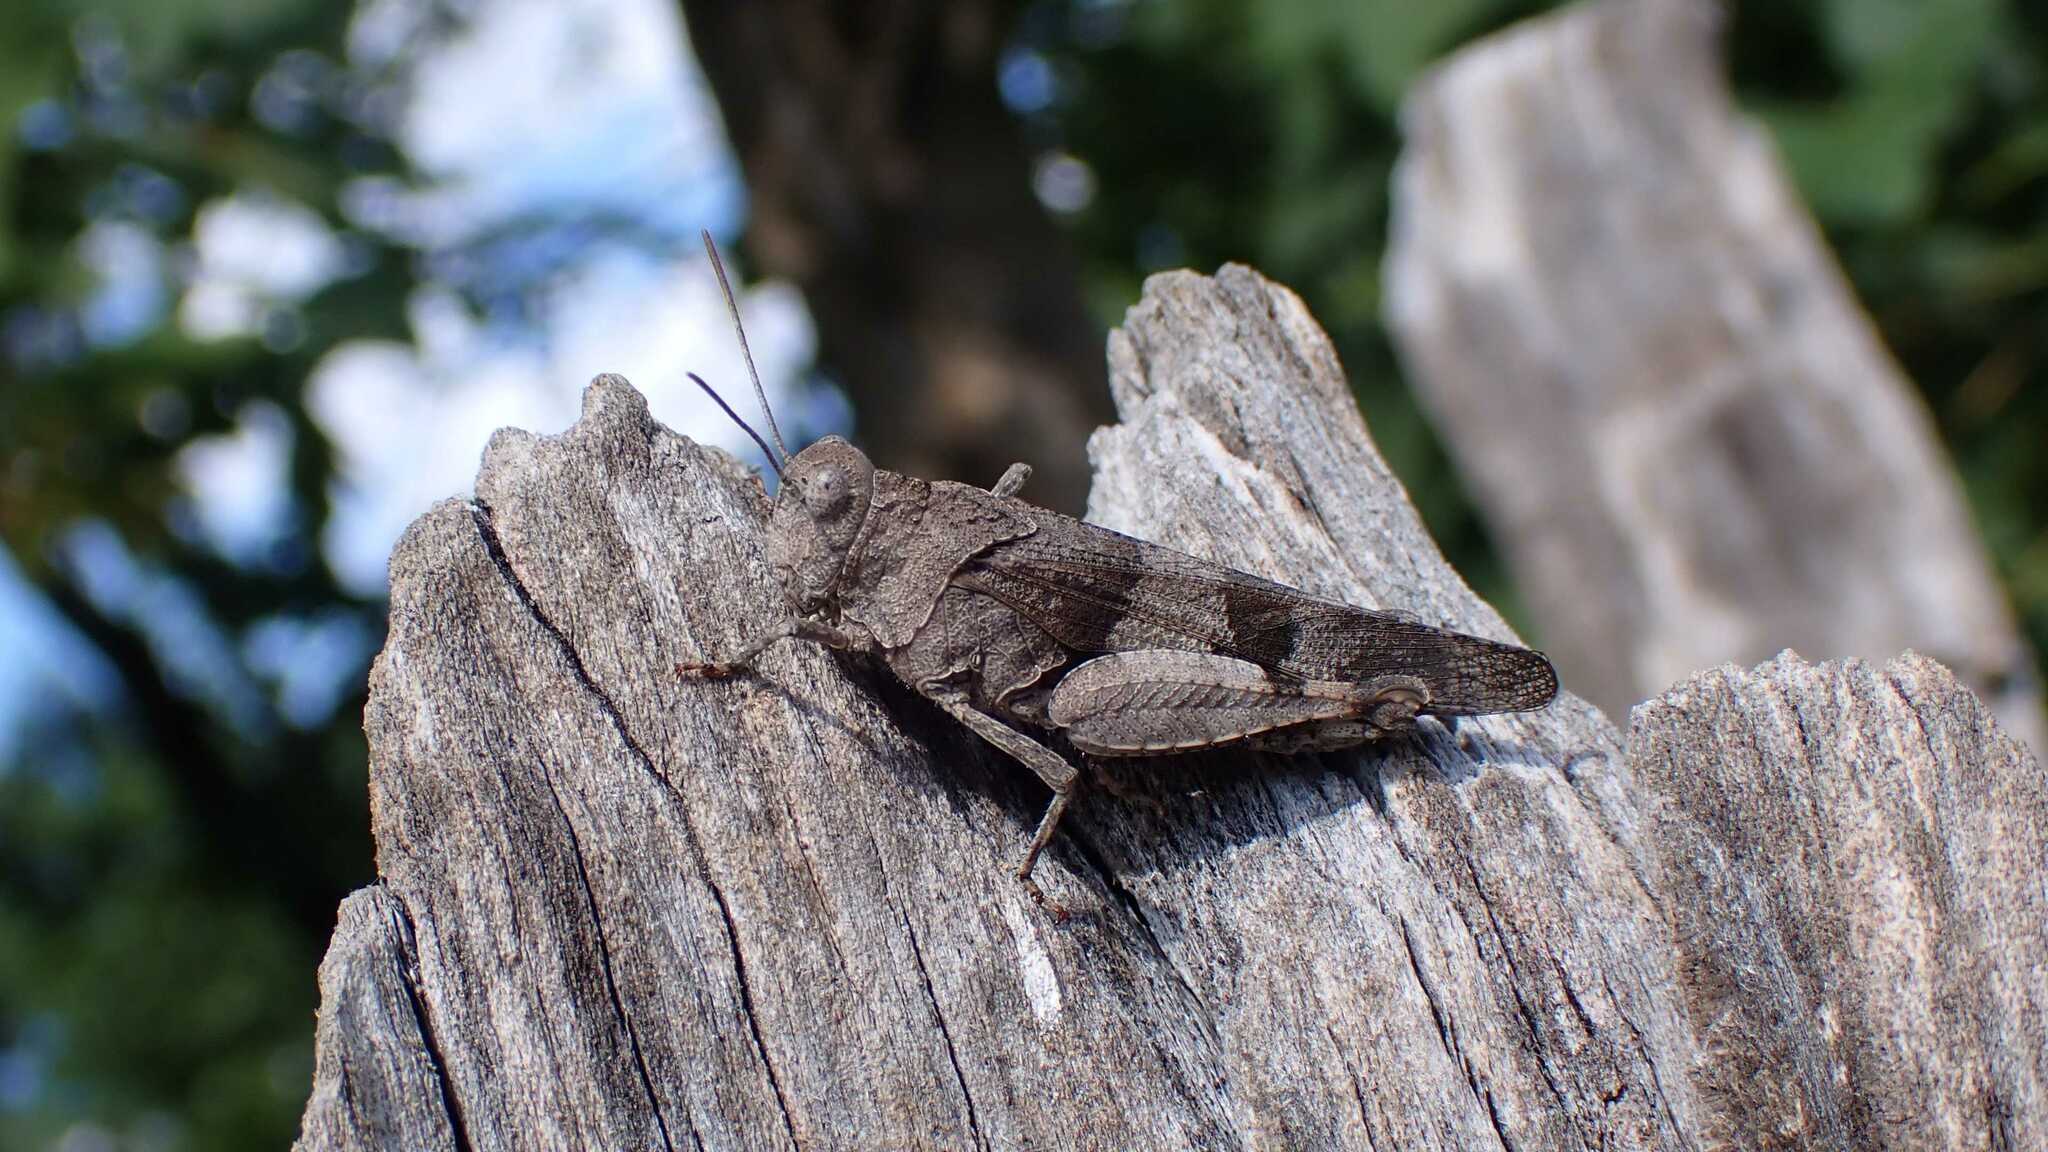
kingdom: Animalia
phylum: Arthropoda
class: Insecta
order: Orthoptera
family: Acrididae
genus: Oedipoda
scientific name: Oedipoda caerulescens
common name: Blue-winged grasshopper
